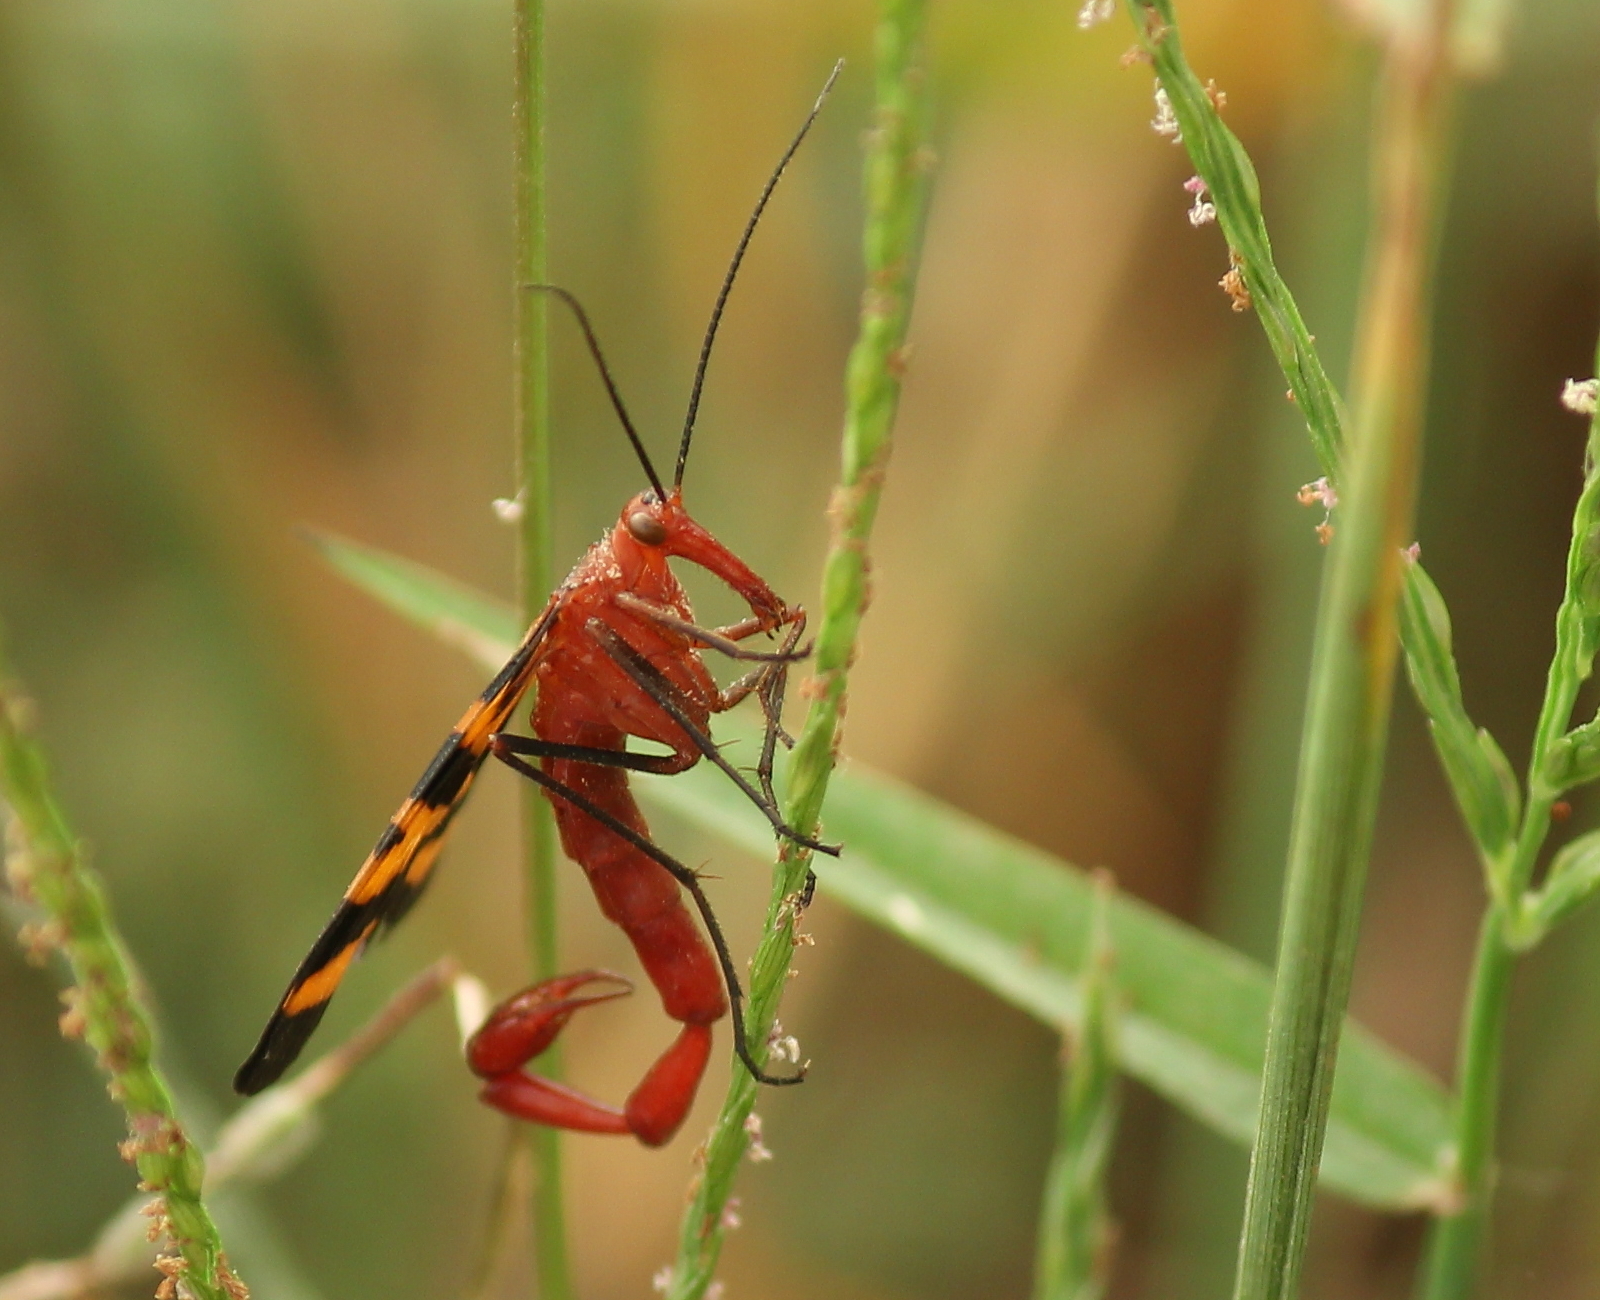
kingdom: Animalia
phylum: Arthropoda
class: Insecta
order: Mecoptera
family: Panorpidae
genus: Panorpa
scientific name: Panorpa nuptialis
